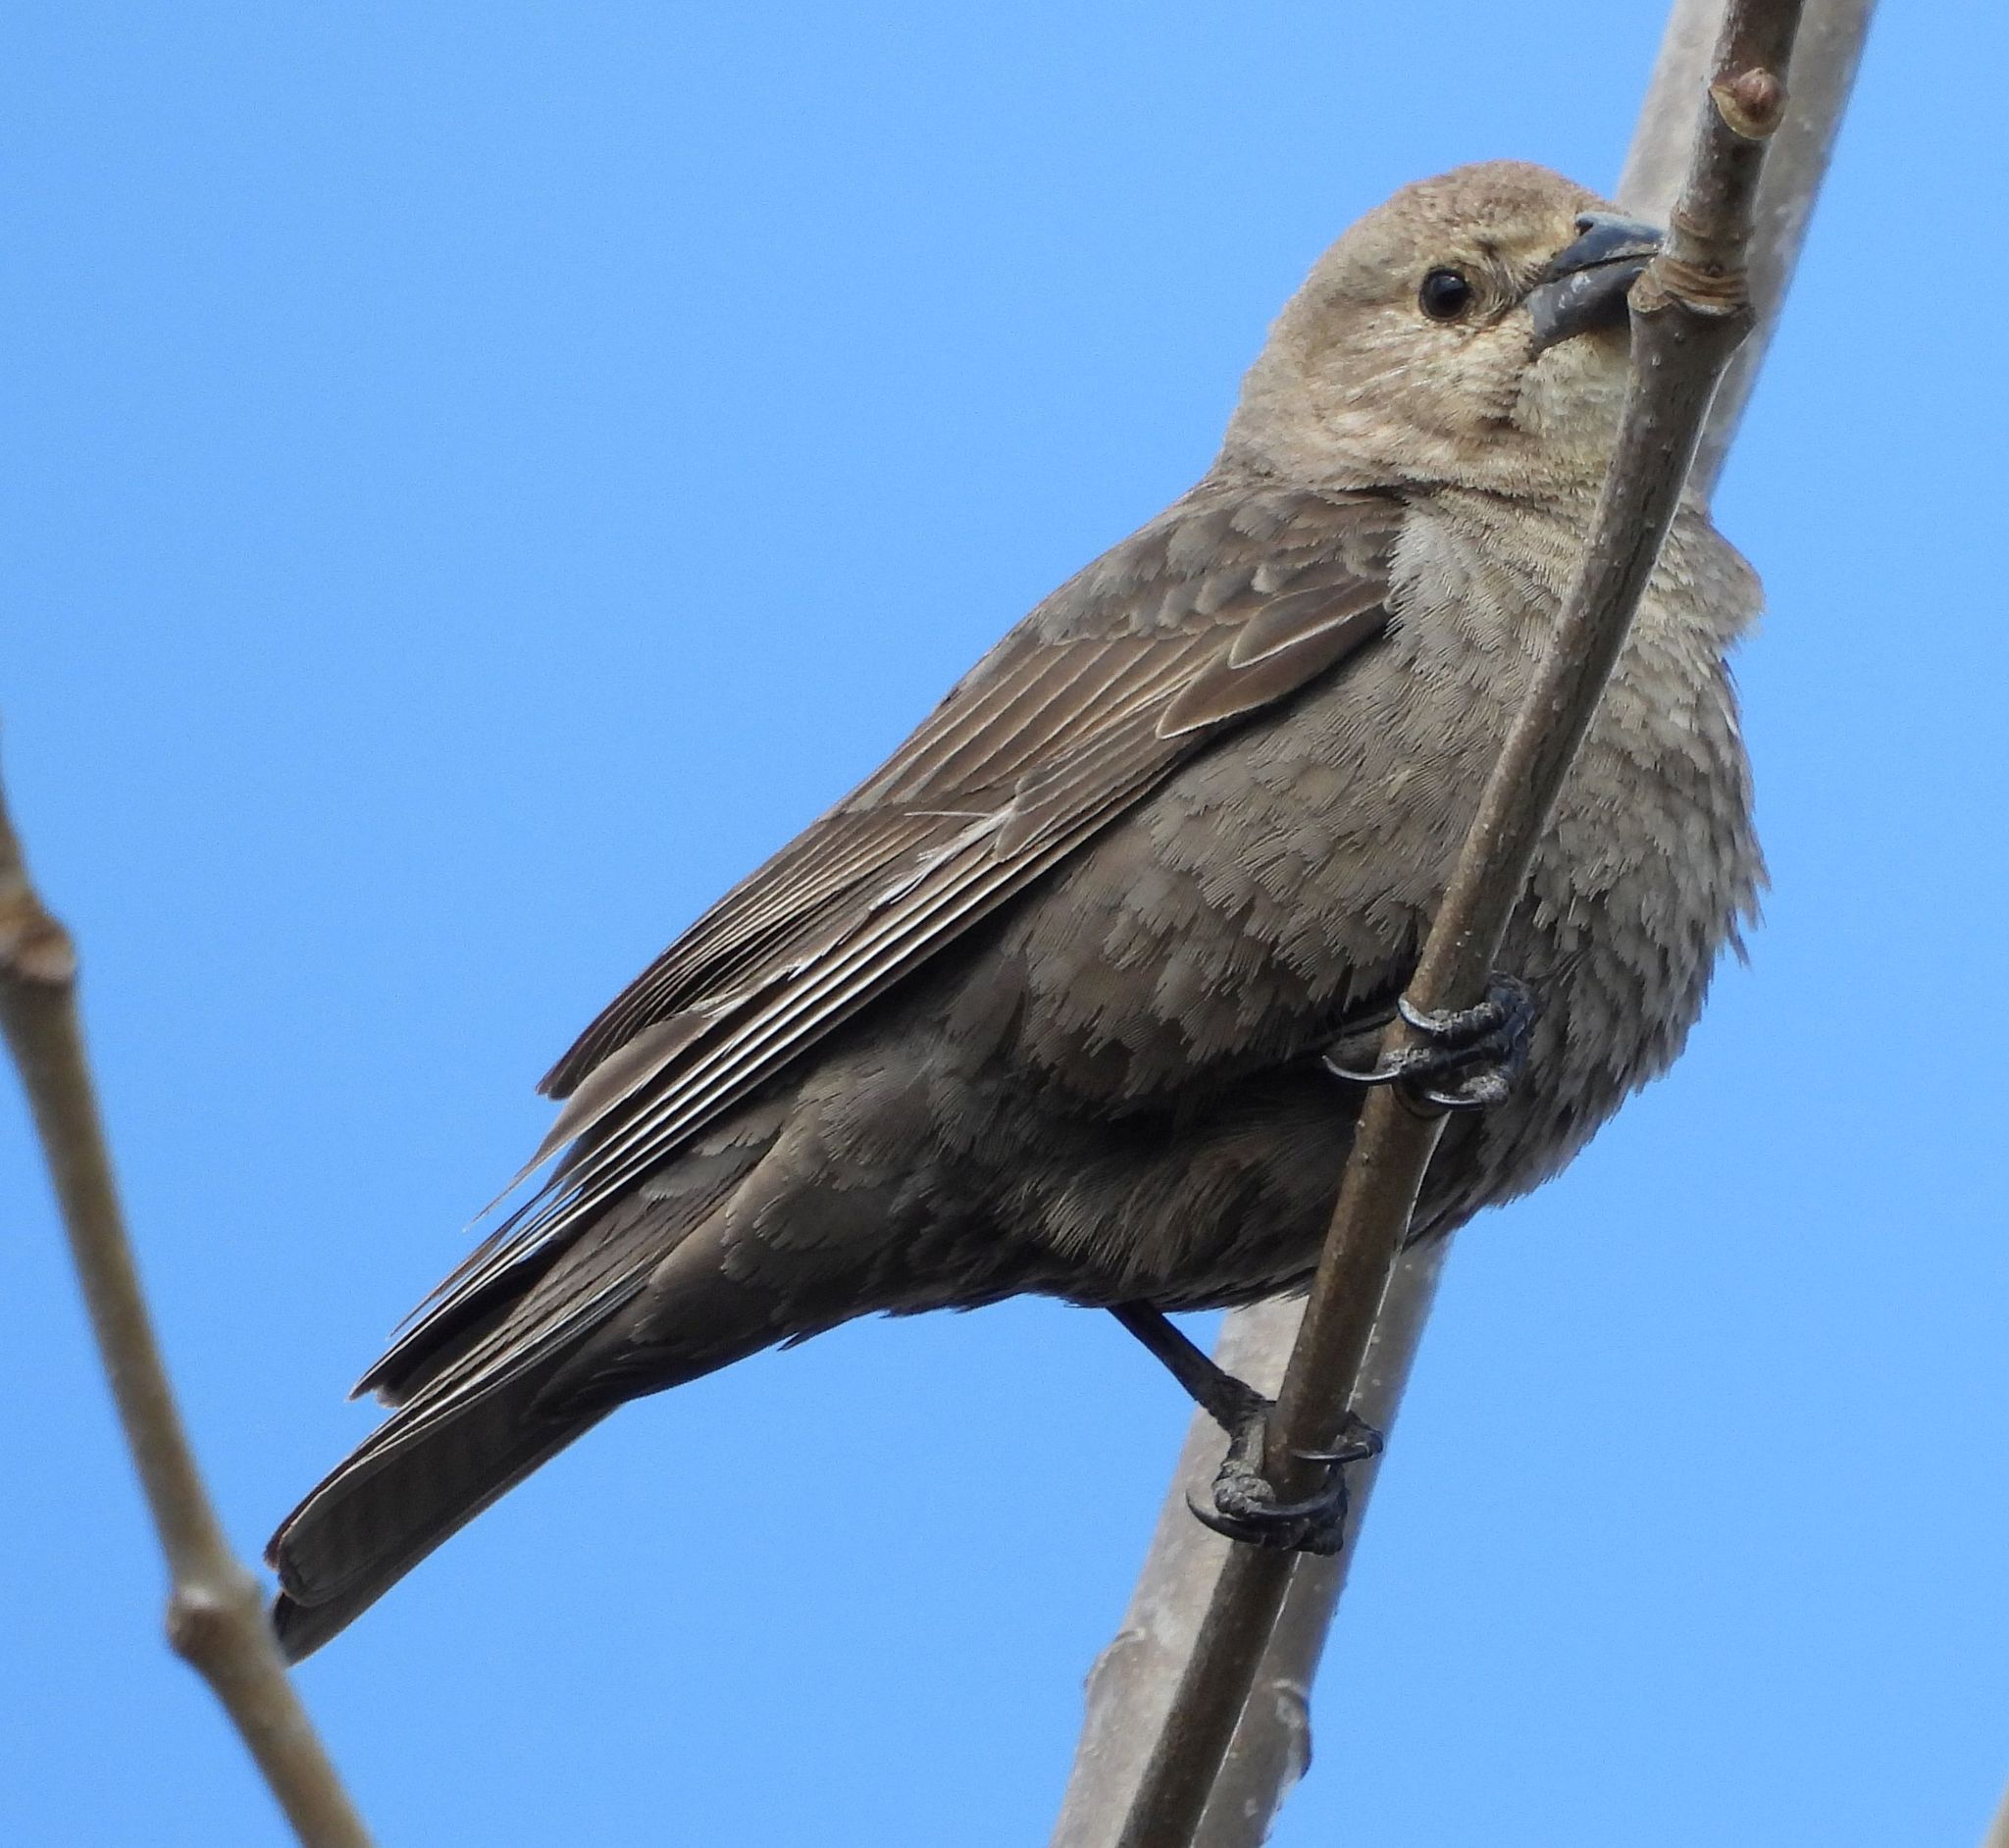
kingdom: Animalia
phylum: Chordata
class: Aves
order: Passeriformes
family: Icteridae
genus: Molothrus
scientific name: Molothrus ater
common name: Brown-headed cowbird
